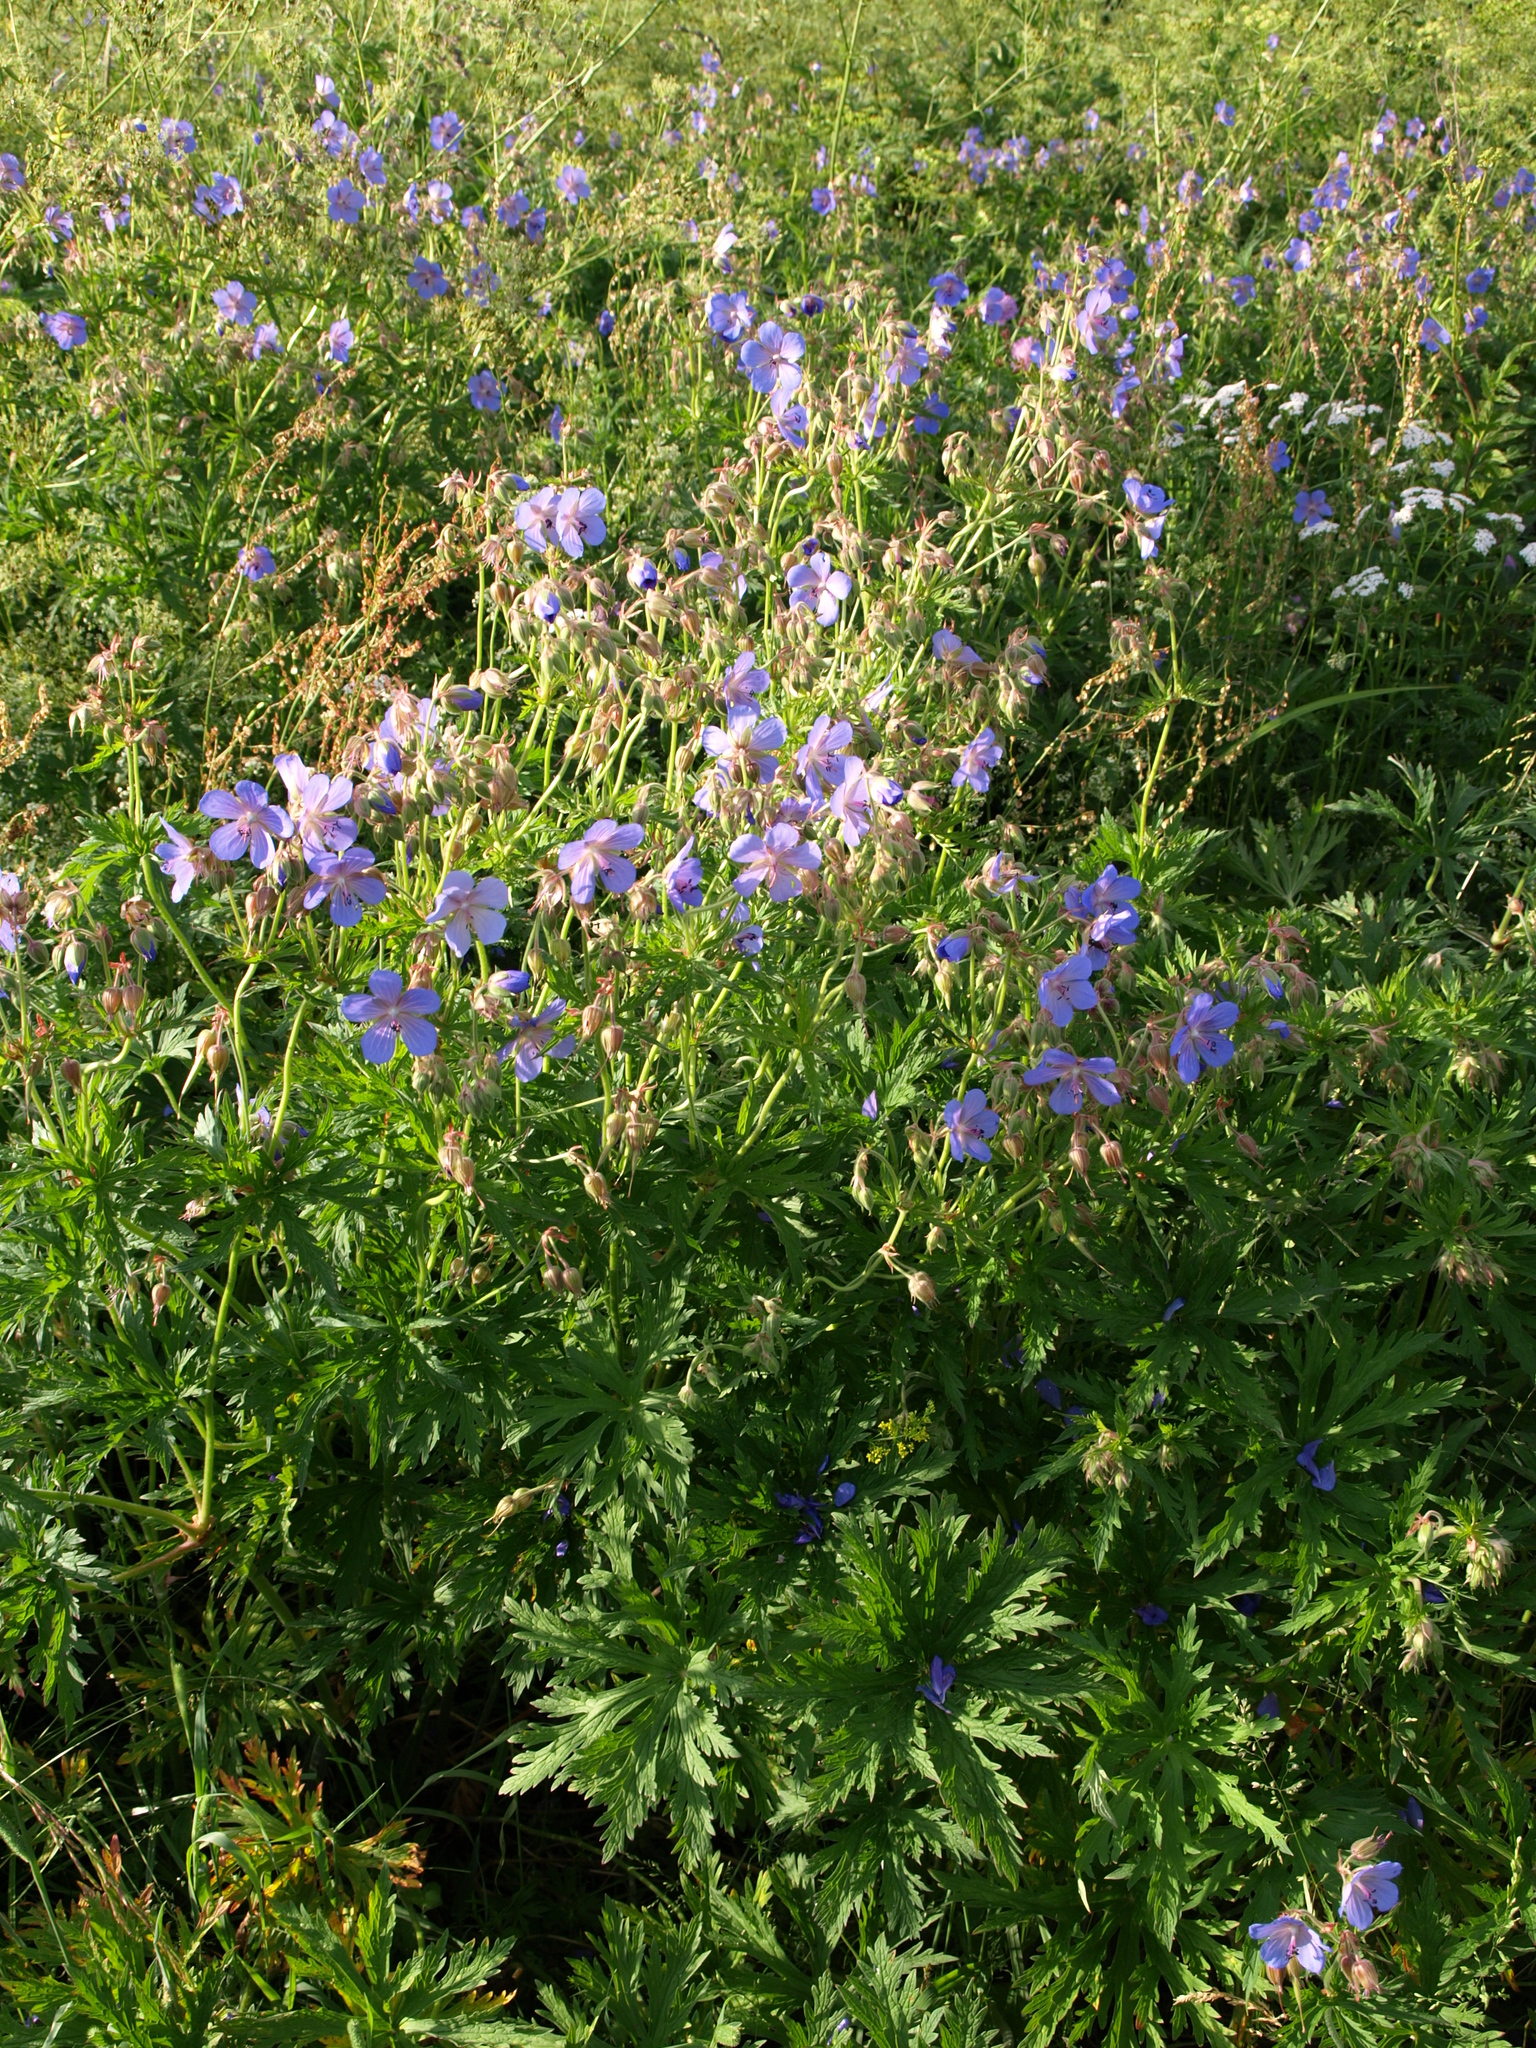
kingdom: Plantae
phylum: Tracheophyta
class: Magnoliopsida
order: Geraniales
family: Geraniaceae
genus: Geranium
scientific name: Geranium pratense
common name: Meadow crane's-bill
